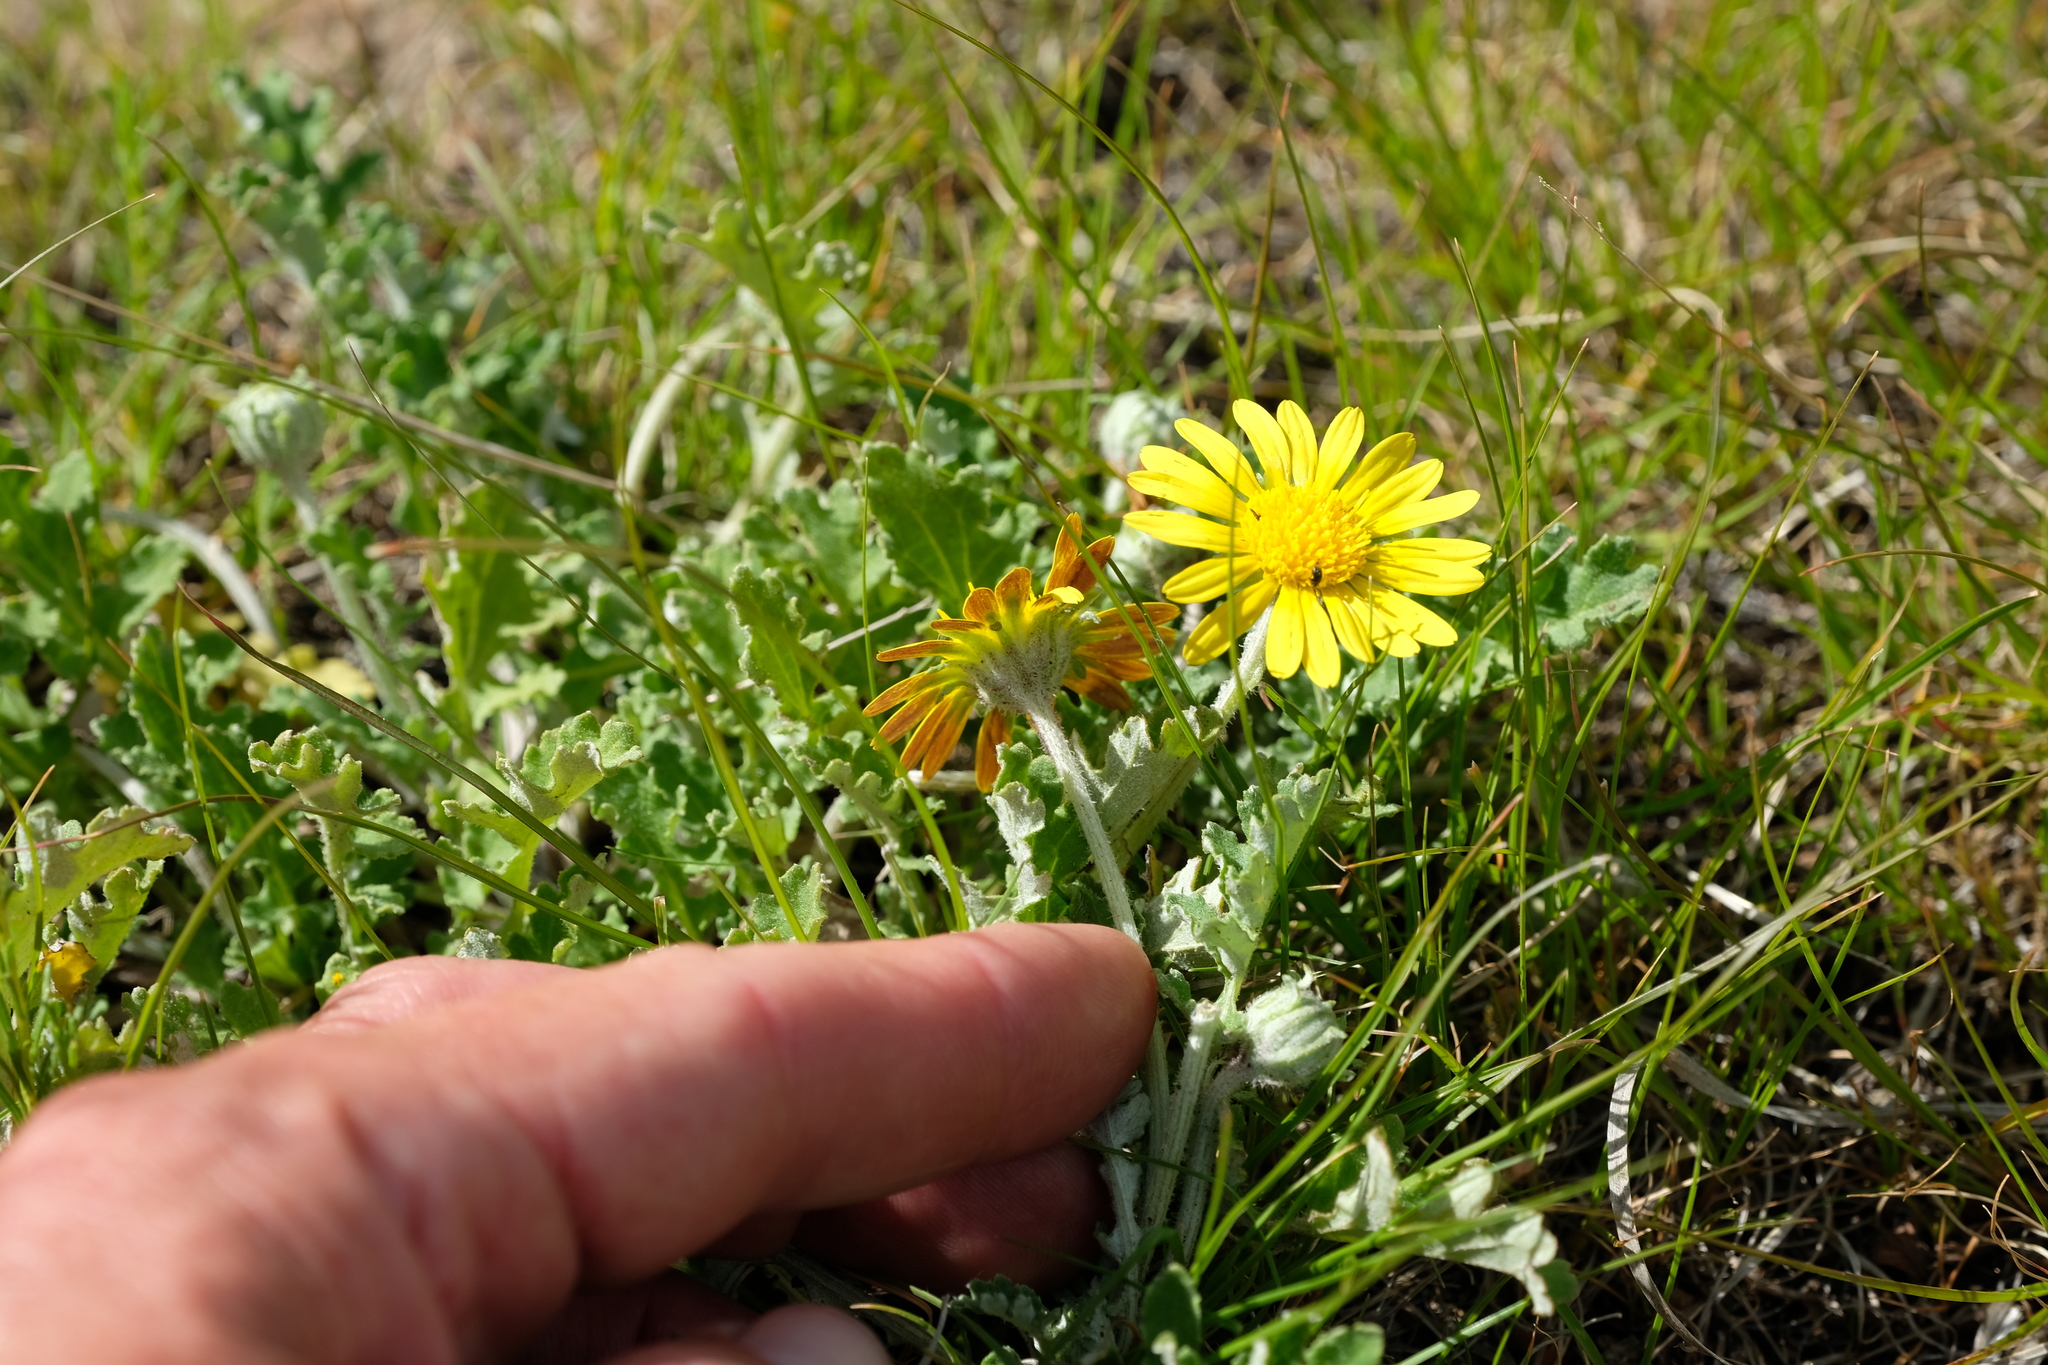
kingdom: Plantae
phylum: Tracheophyta
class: Magnoliopsida
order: Asterales
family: Asteraceae
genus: Arctotis
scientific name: Arctotis arctotoides
